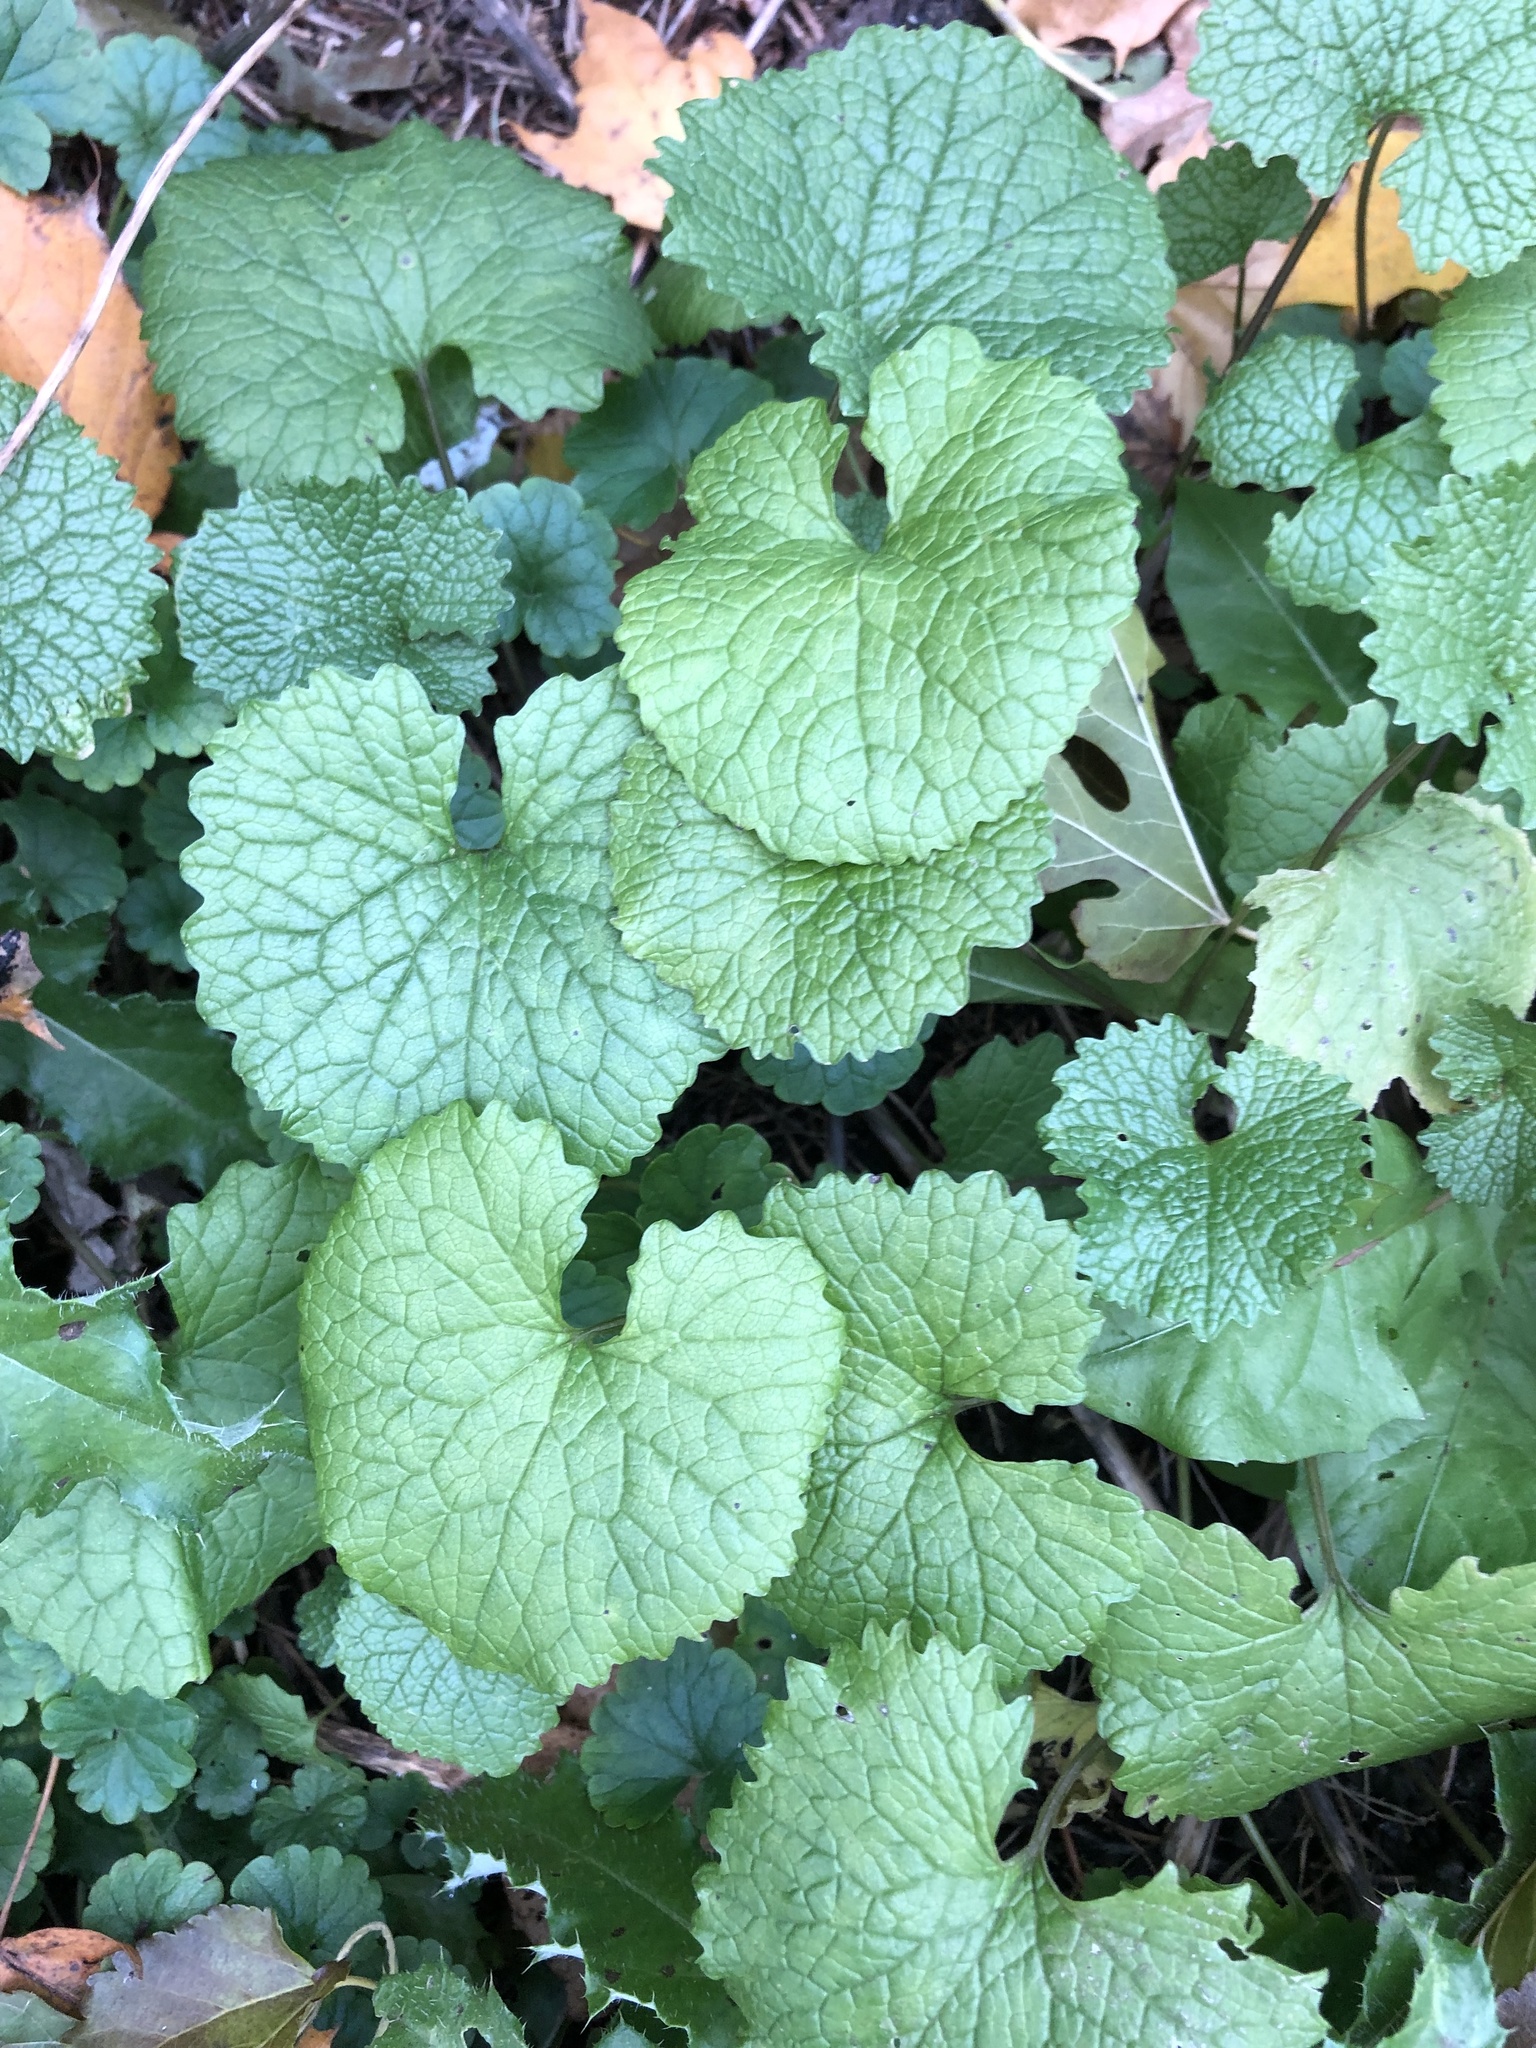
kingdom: Plantae
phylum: Tracheophyta
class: Magnoliopsida
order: Brassicales
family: Brassicaceae
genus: Alliaria
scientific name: Alliaria petiolata
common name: Garlic mustard
